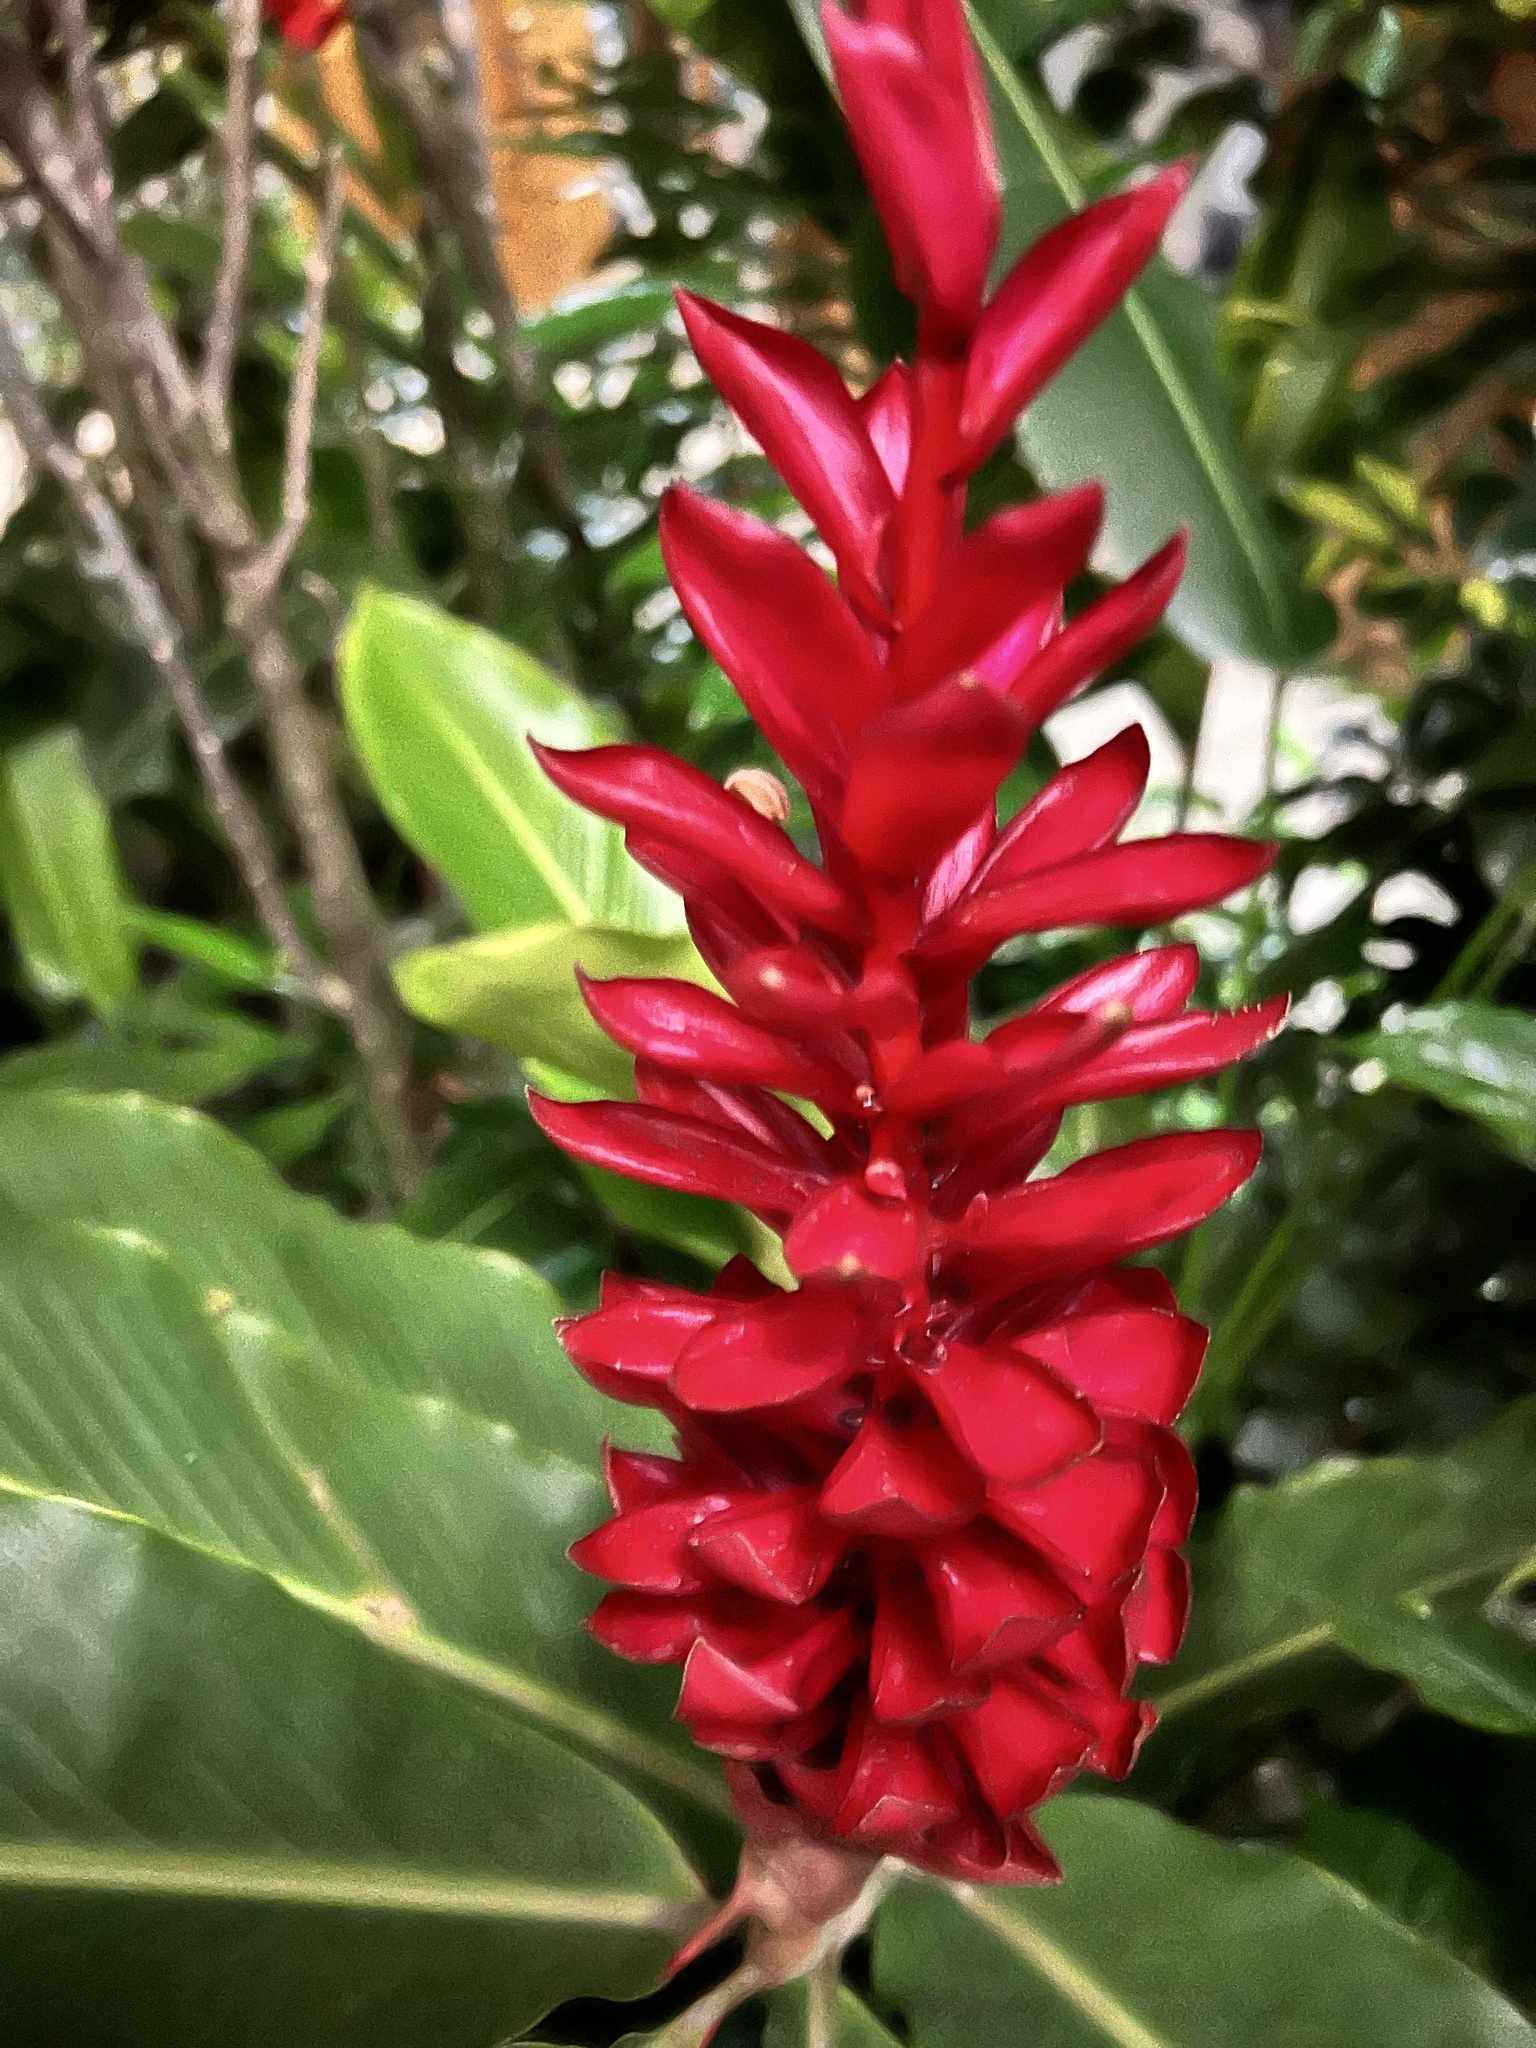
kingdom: Plantae
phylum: Tracheophyta
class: Liliopsida
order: Zingiberales
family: Zingiberaceae
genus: Alpinia
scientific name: Alpinia purpurata
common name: Red ginger
